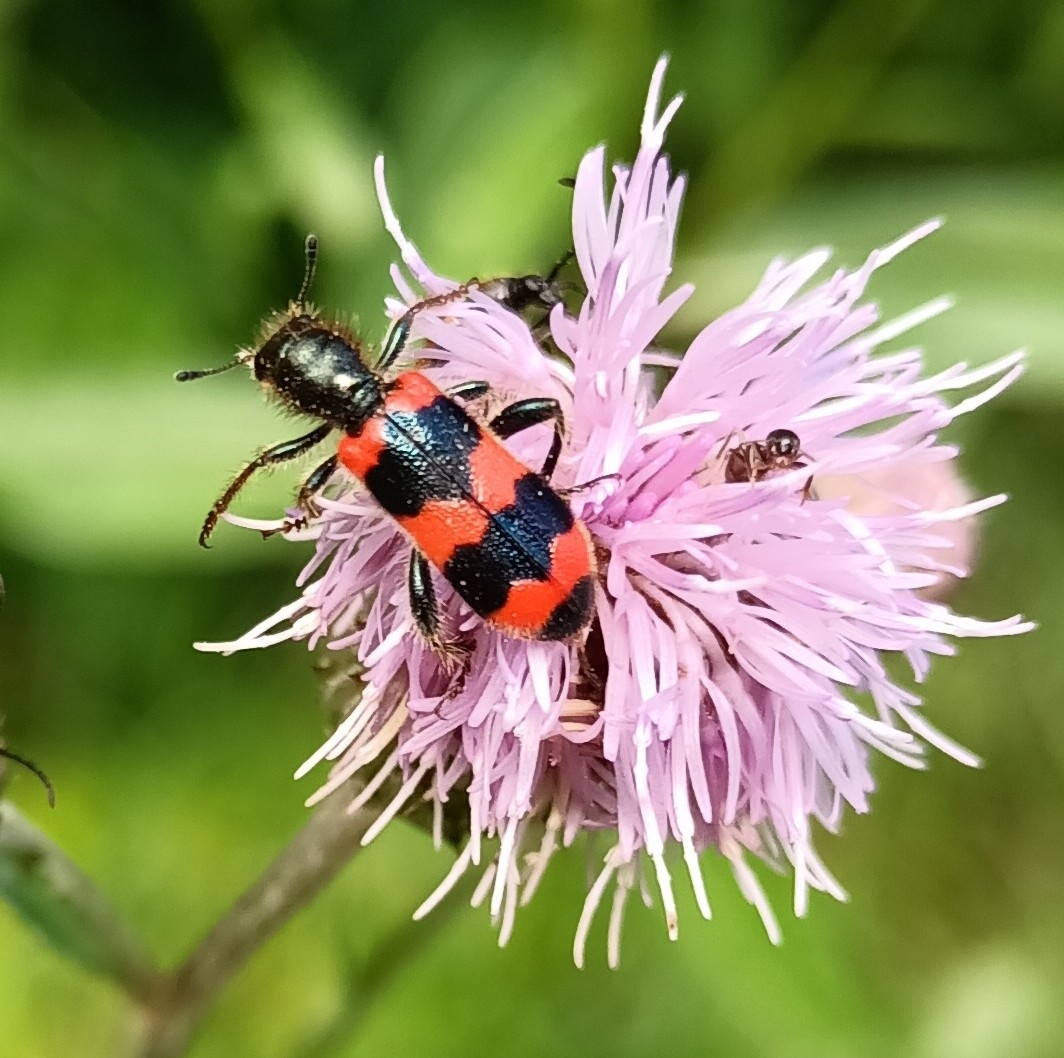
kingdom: Animalia
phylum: Arthropoda
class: Insecta
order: Coleoptera
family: Cleridae
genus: Trichodes
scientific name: Trichodes apiarius
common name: Bee-eating beetle
